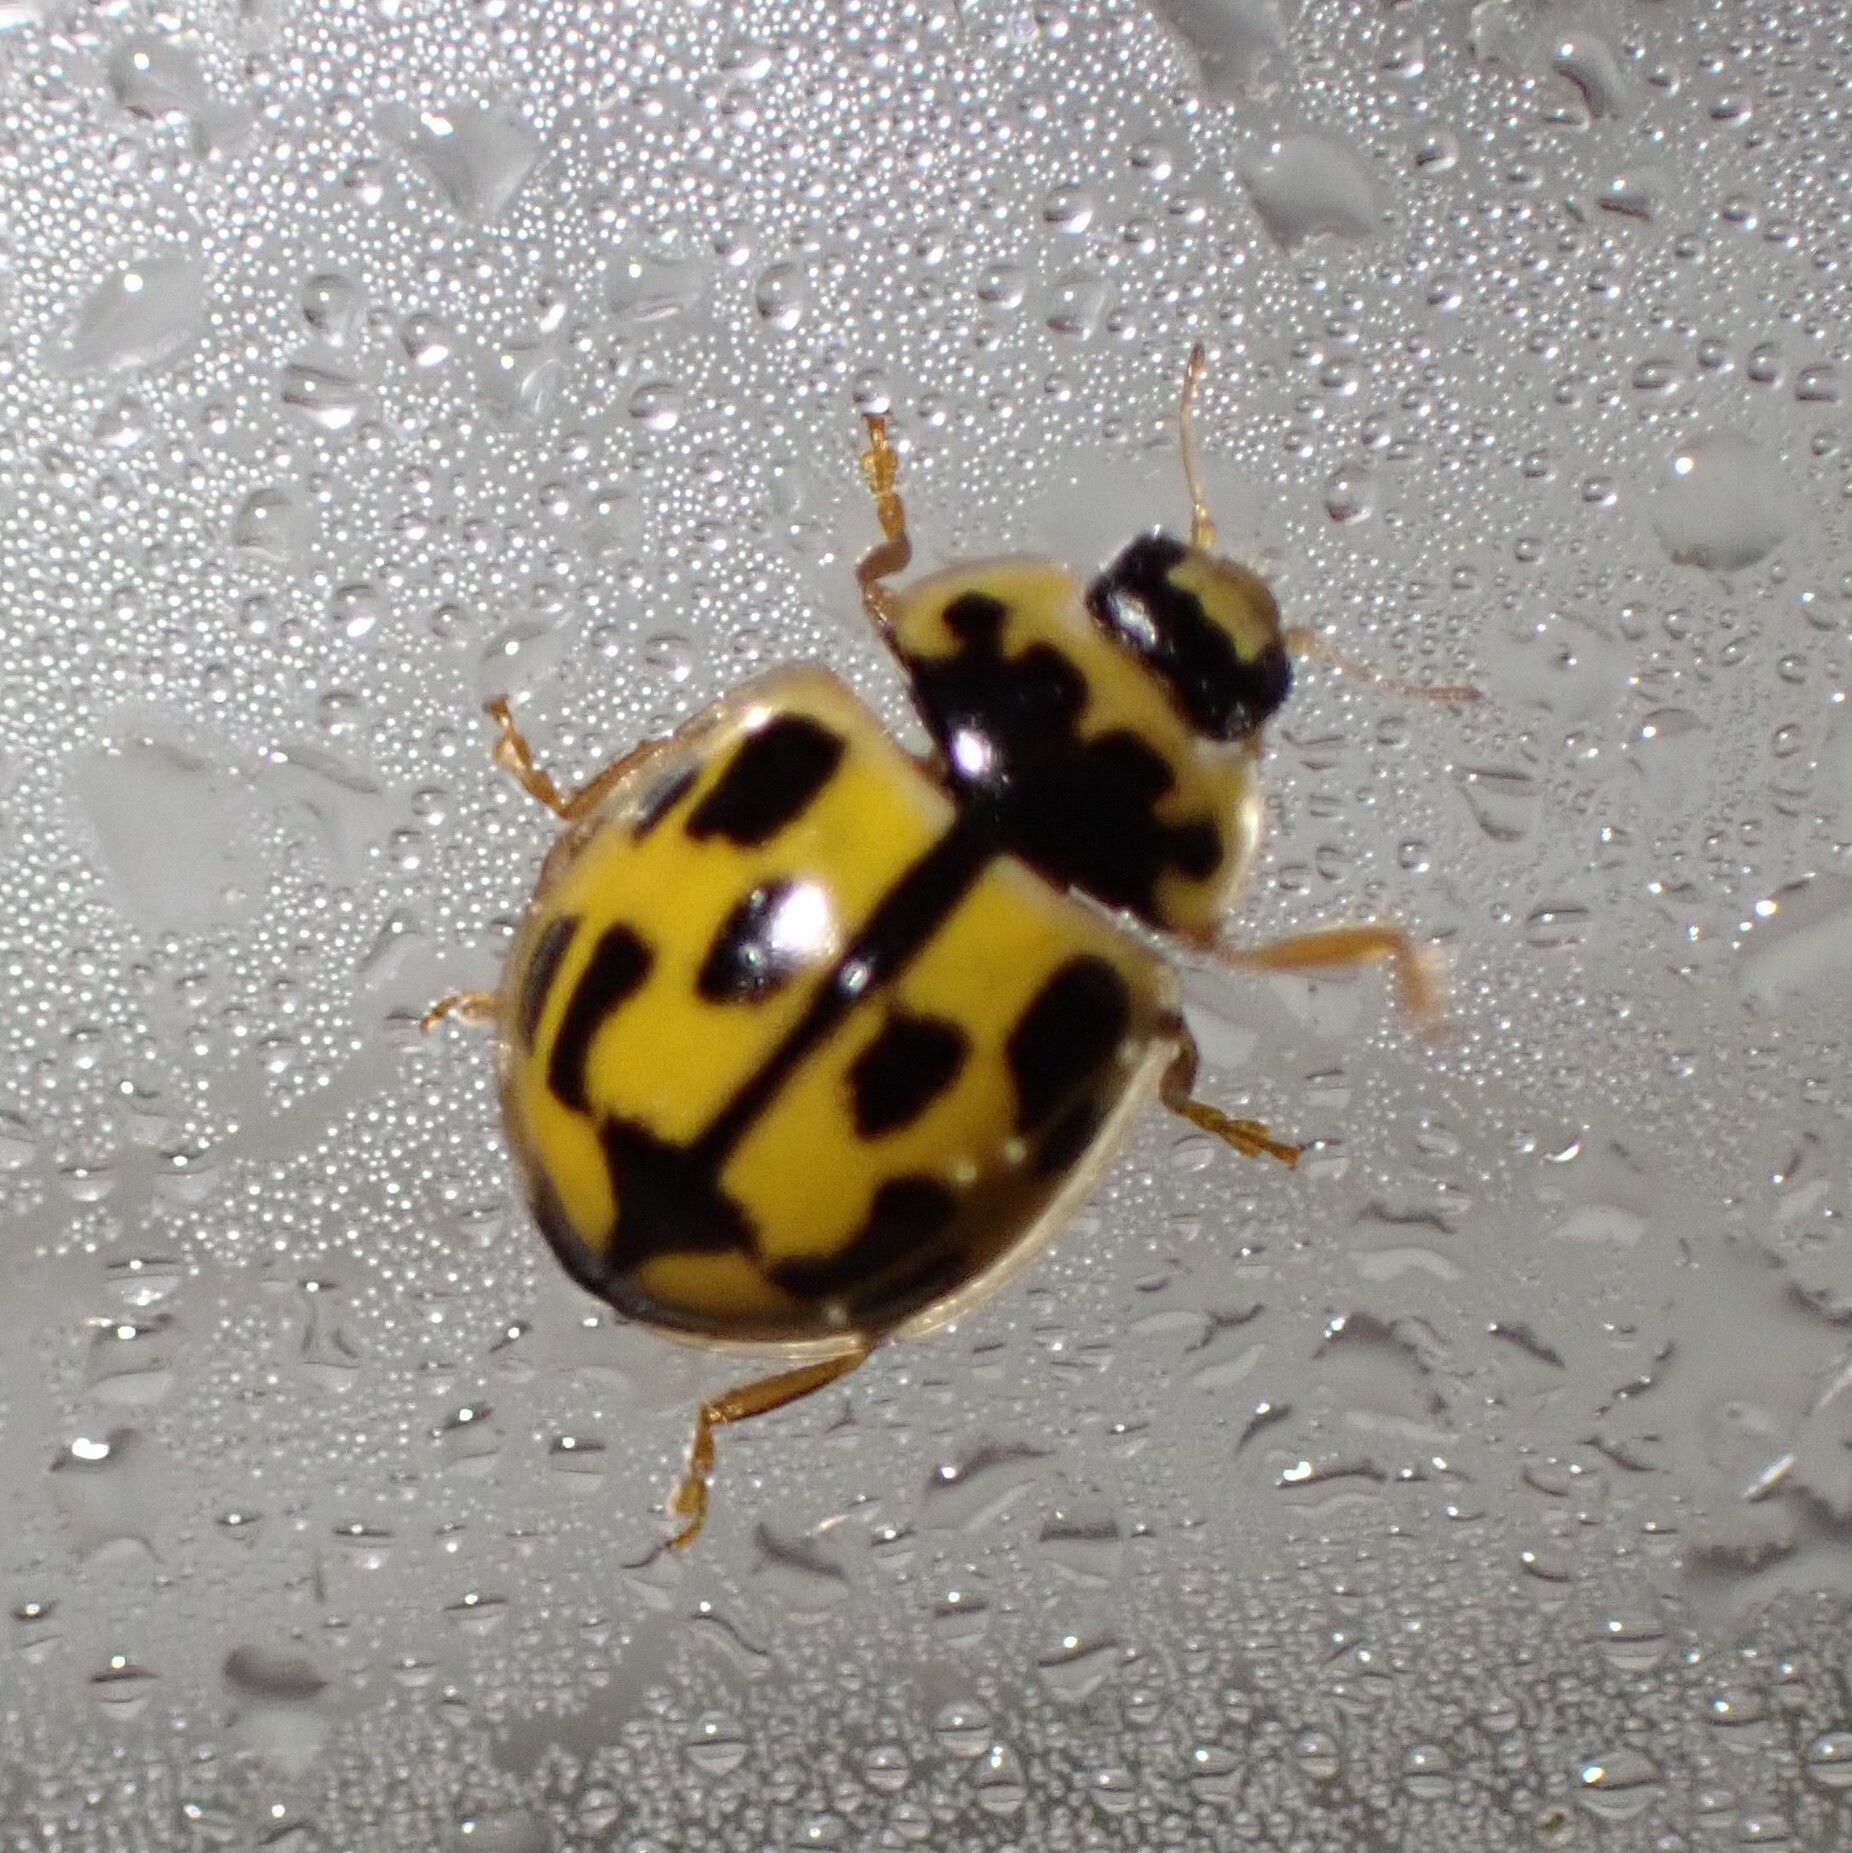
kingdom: Animalia
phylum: Arthropoda
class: Insecta
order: Coleoptera
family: Coccinellidae
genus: Propylaea
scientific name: Propylaea quatuordecimpunctata
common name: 14-spotted ladybird beetle
